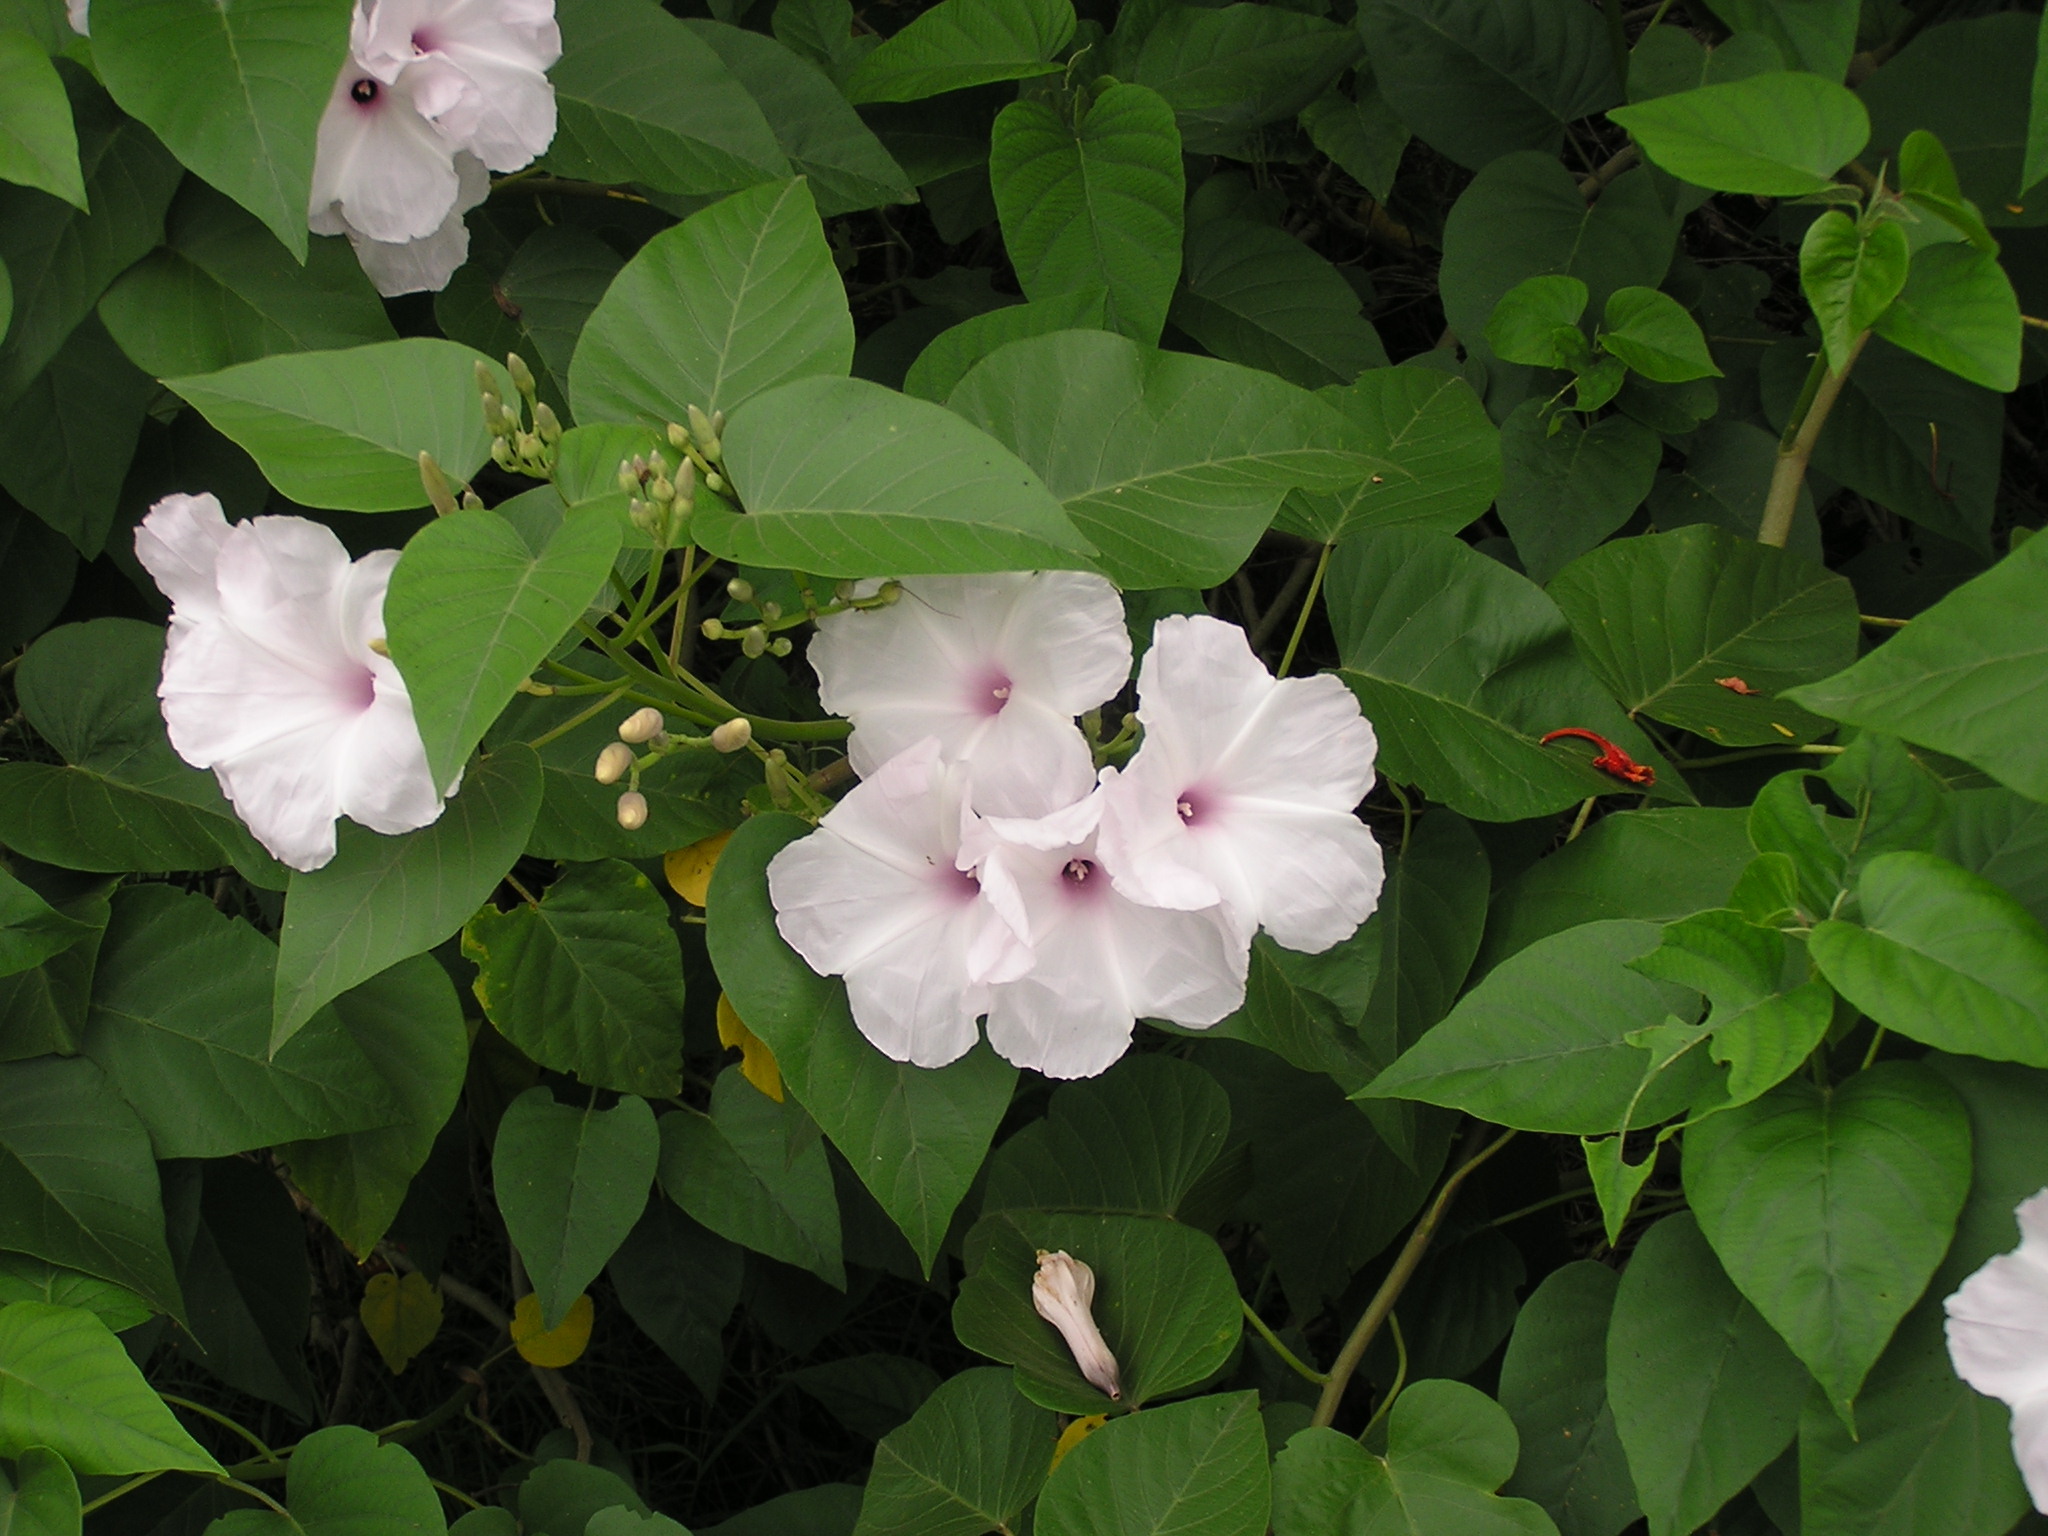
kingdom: Plantae
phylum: Tracheophyta
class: Magnoliopsida
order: Solanales
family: Convolvulaceae
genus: Ipomoea
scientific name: Ipomoea carnea
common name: Morning-glory
